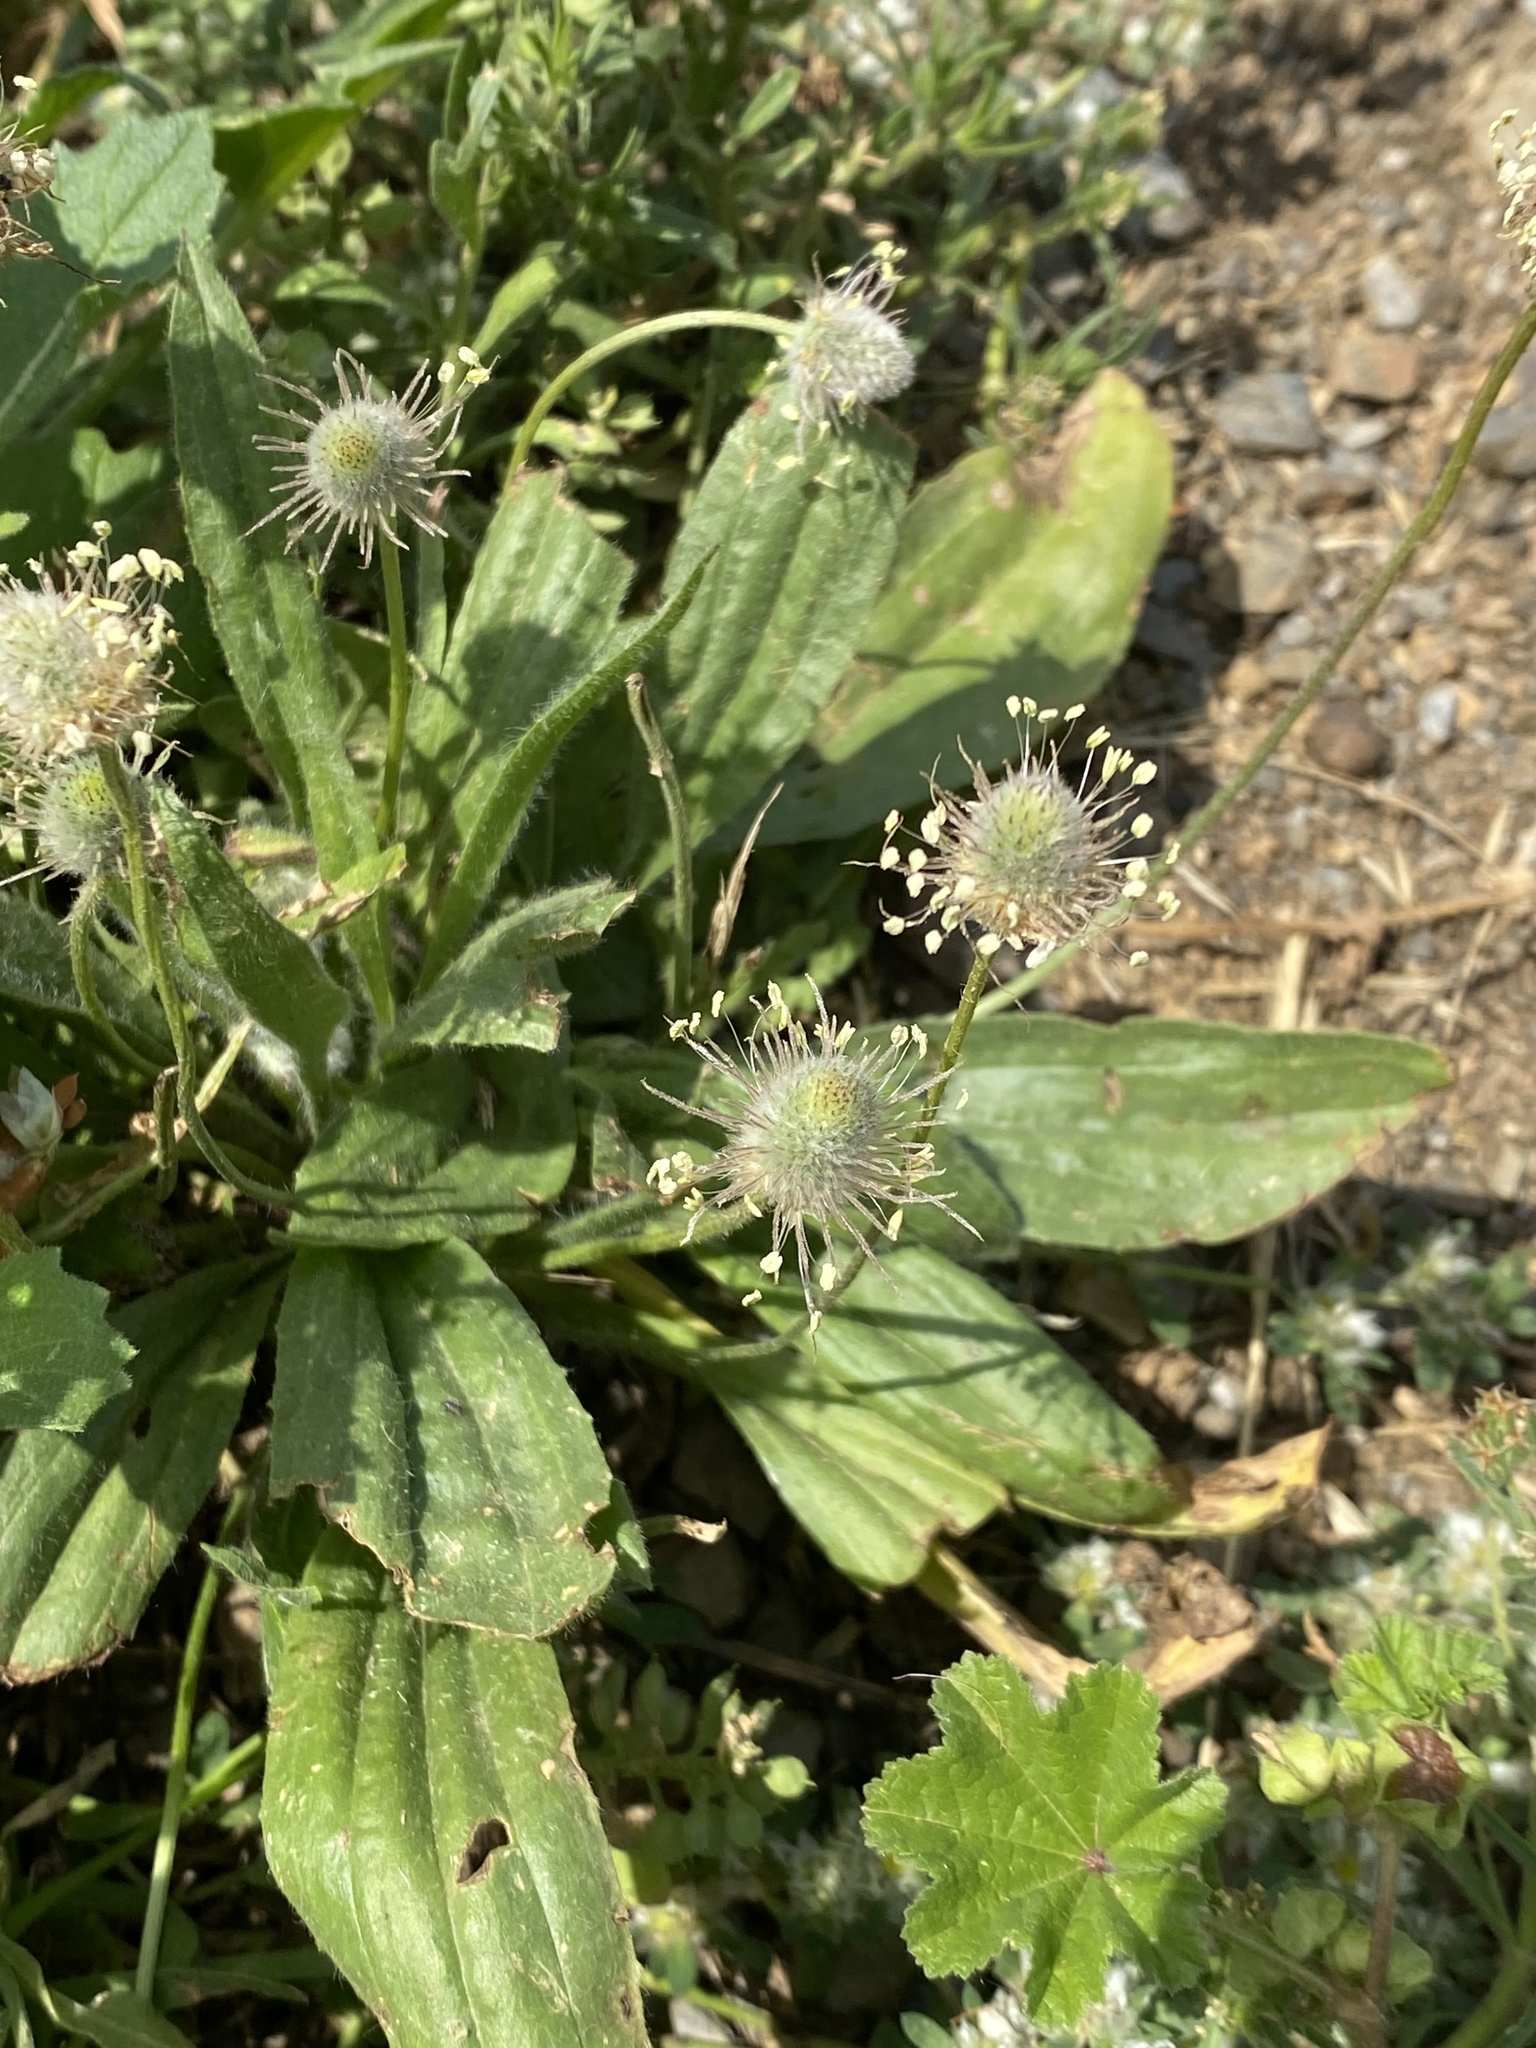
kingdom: Plantae
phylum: Tracheophyta
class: Magnoliopsida
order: Lamiales
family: Plantaginaceae
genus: Plantago
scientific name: Plantago lagopus
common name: Hare-foot plantain
